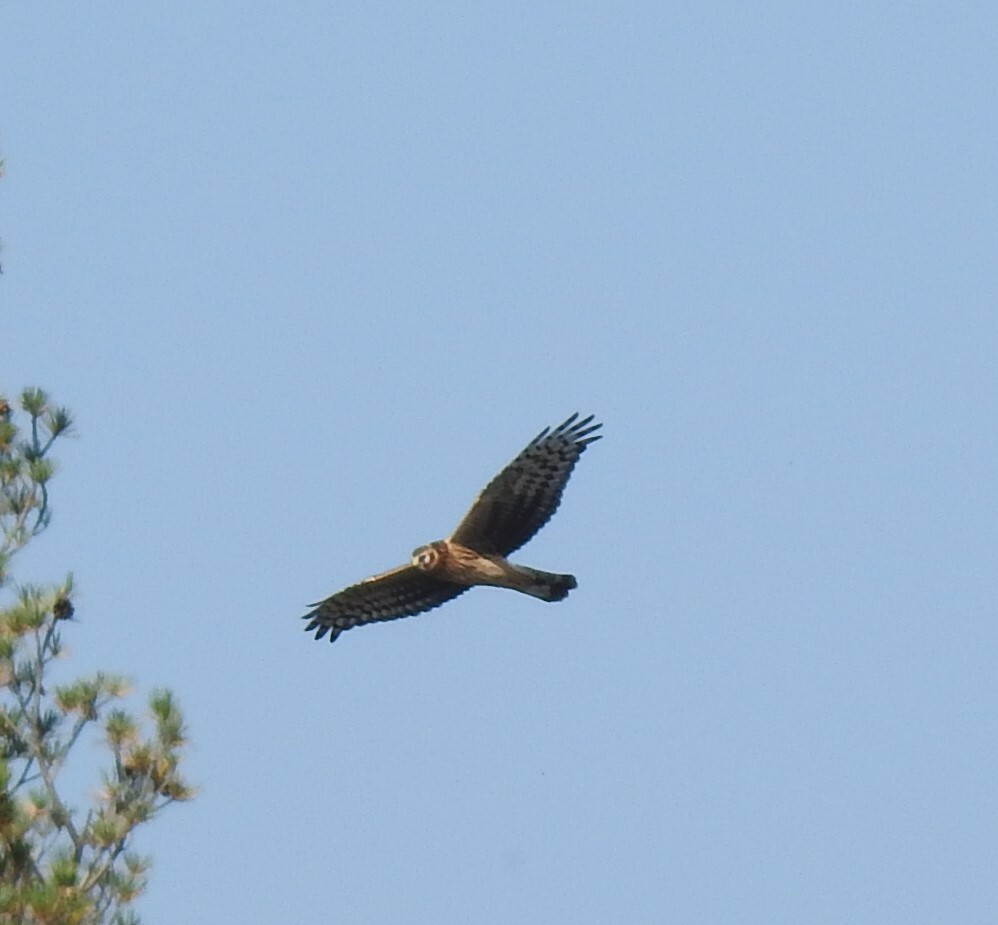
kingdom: Animalia
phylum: Chordata
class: Aves
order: Accipitriformes
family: Accipitridae
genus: Circus
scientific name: Circus cyaneus
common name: Hen harrier
